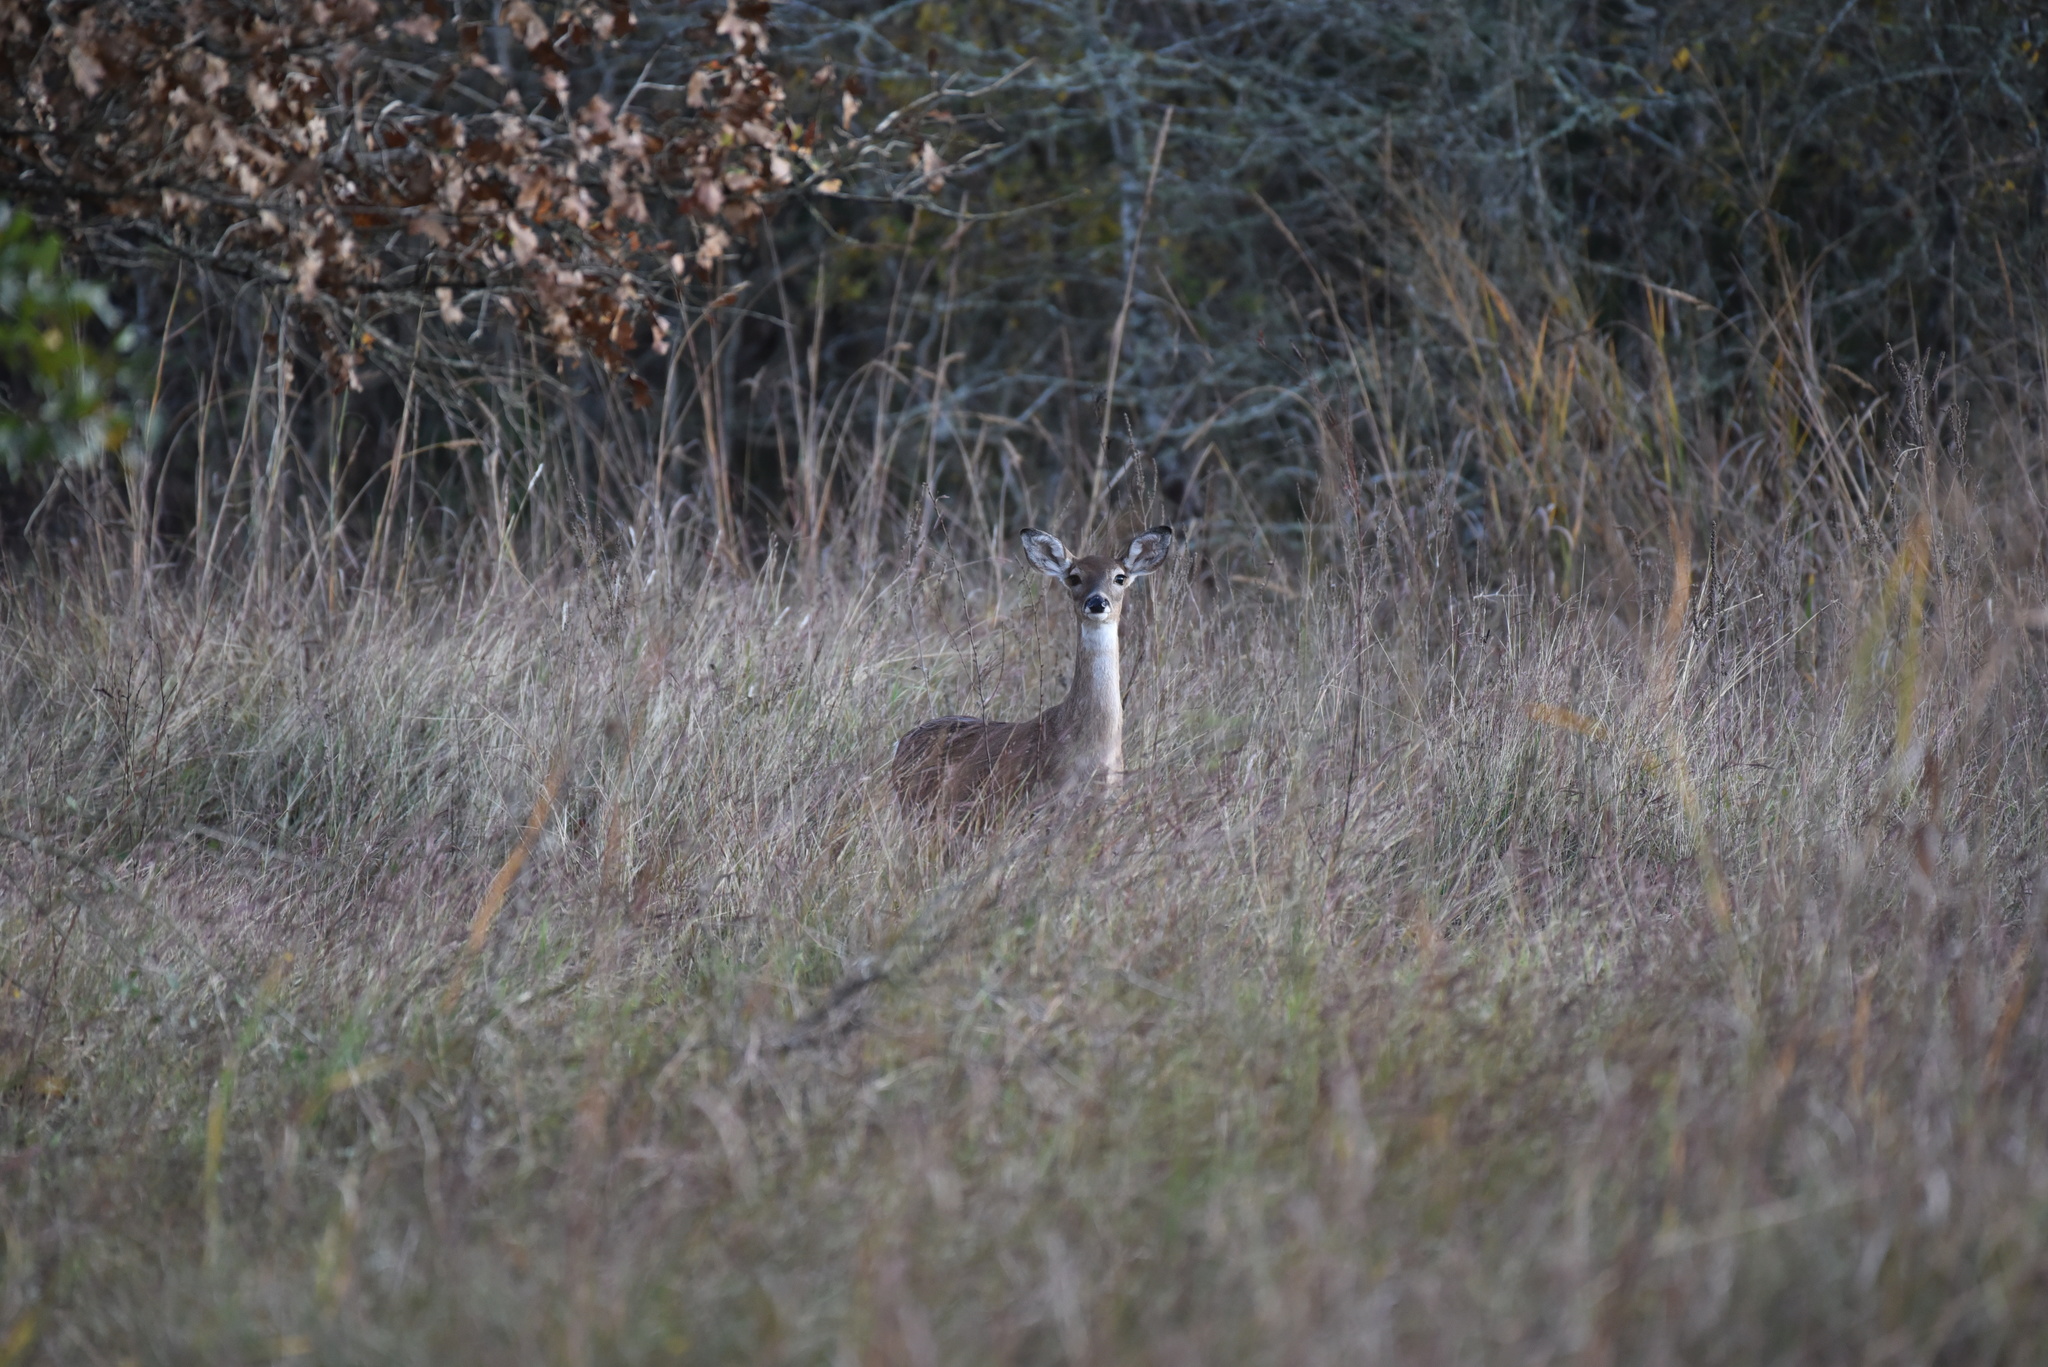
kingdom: Animalia
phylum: Chordata
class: Mammalia
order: Artiodactyla
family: Cervidae
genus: Odocoileus
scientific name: Odocoileus virginianus
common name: White-tailed deer
